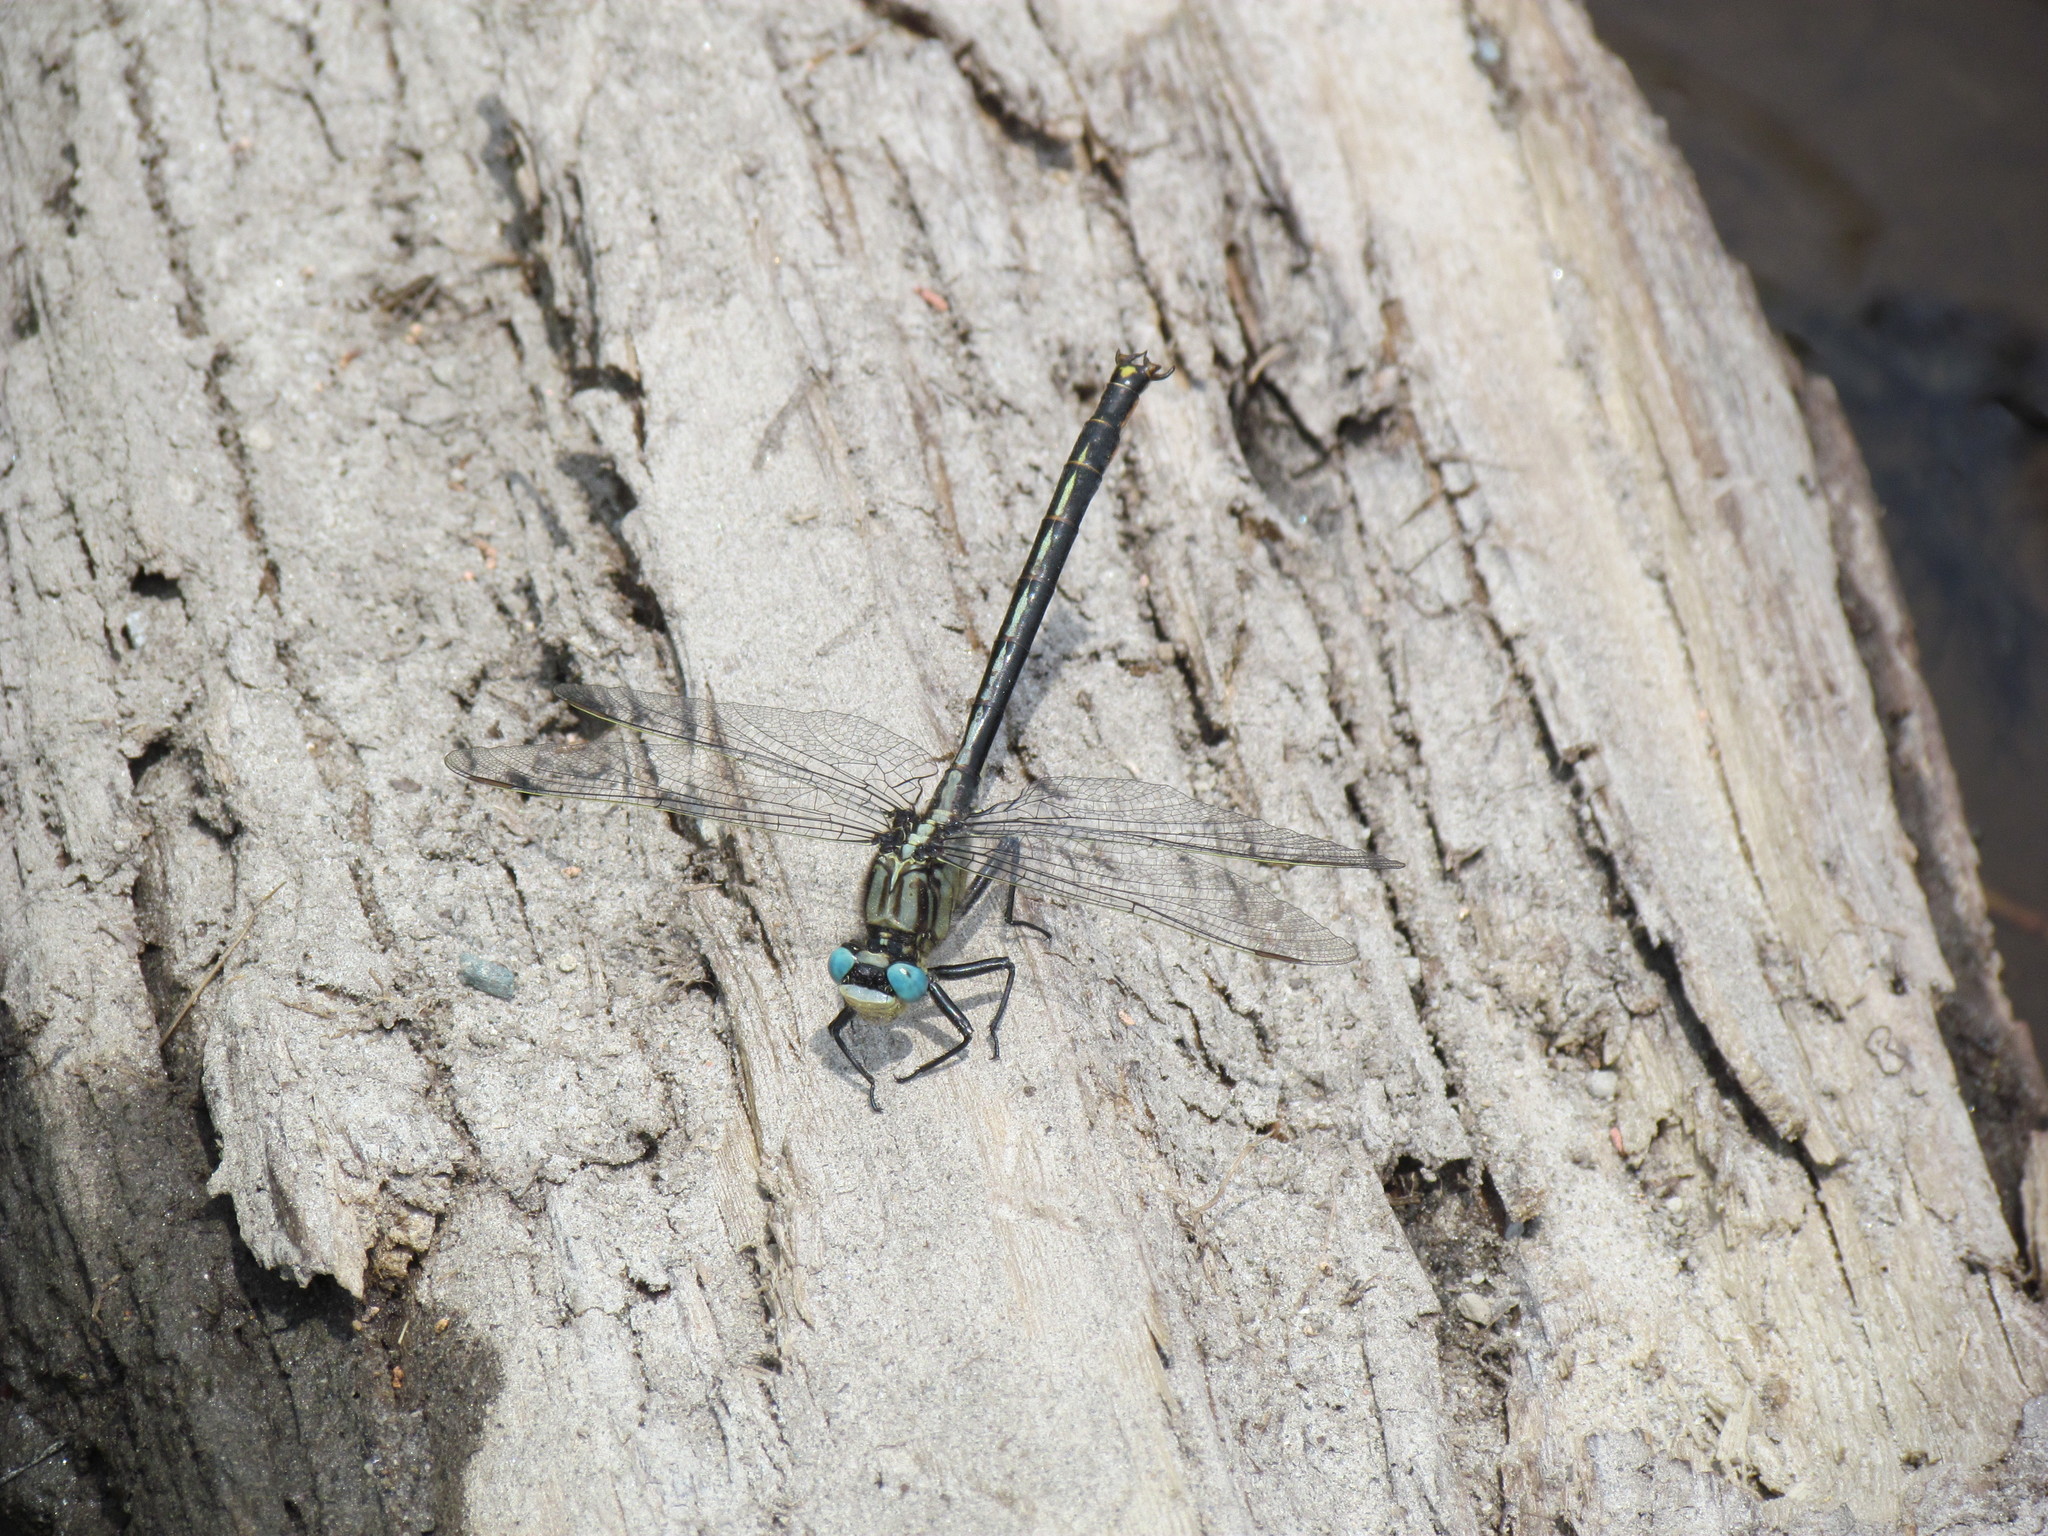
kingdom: Animalia
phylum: Arthropoda
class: Insecta
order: Odonata
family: Gomphidae
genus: Arigomphus
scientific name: Arigomphus cornutus
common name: Horned clubtail
